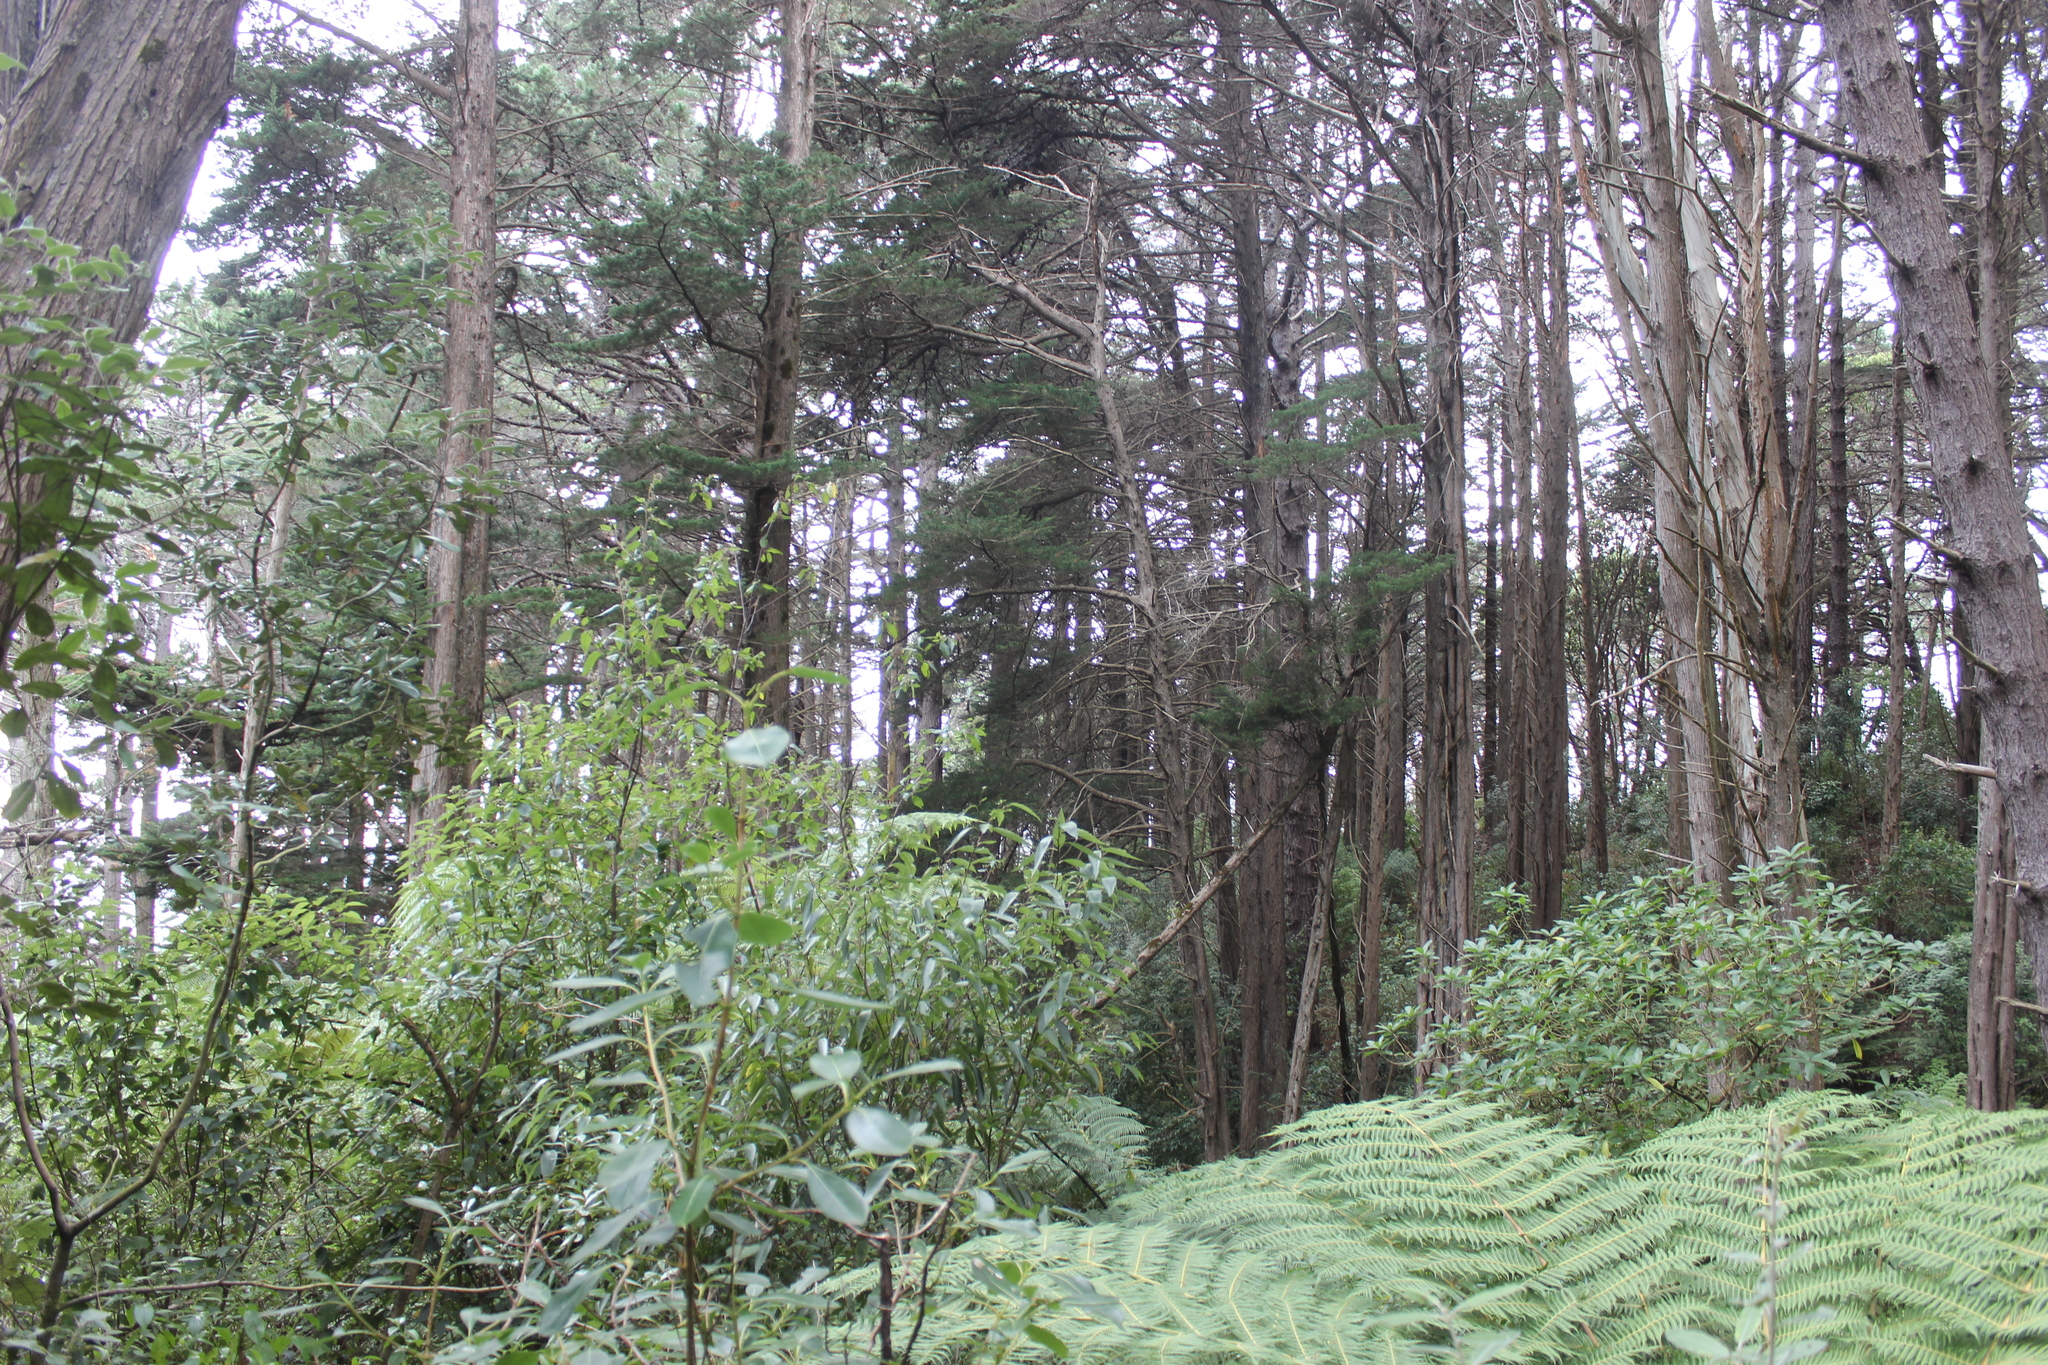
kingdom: Plantae
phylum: Tracheophyta
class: Pinopsida
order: Pinales
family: Pinaceae
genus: Pinus
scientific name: Pinus radiata
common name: Monterey pine
